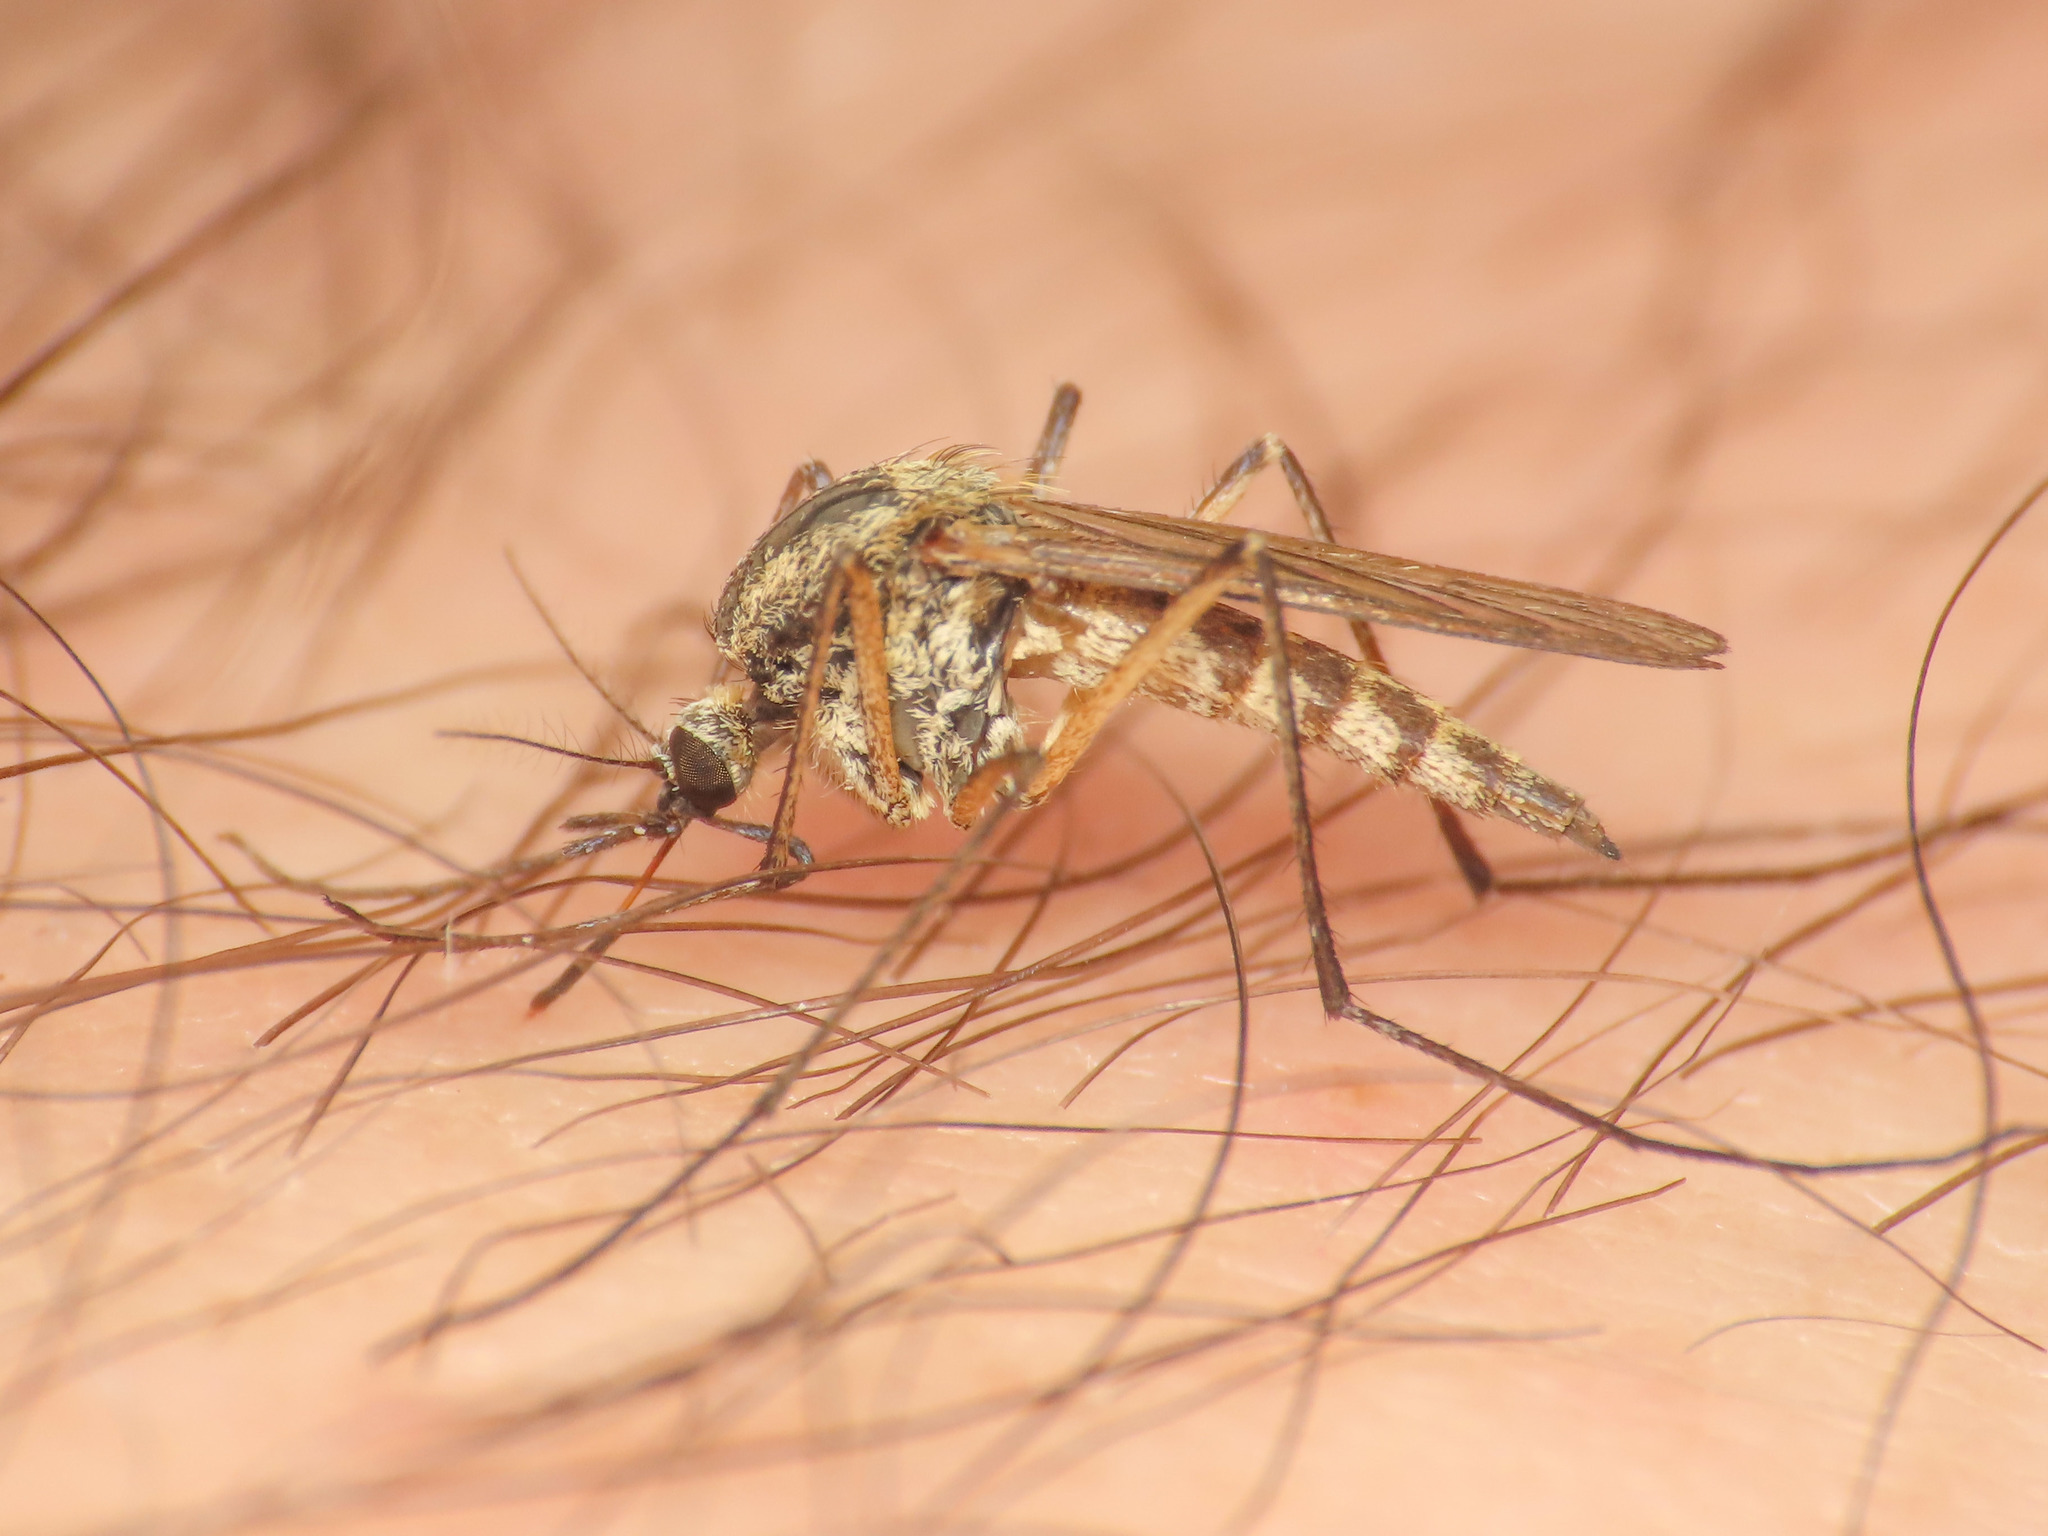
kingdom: Animalia
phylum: Arthropoda
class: Insecta
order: Diptera
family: Culicidae
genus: Aedes
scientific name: Aedes rusticus
